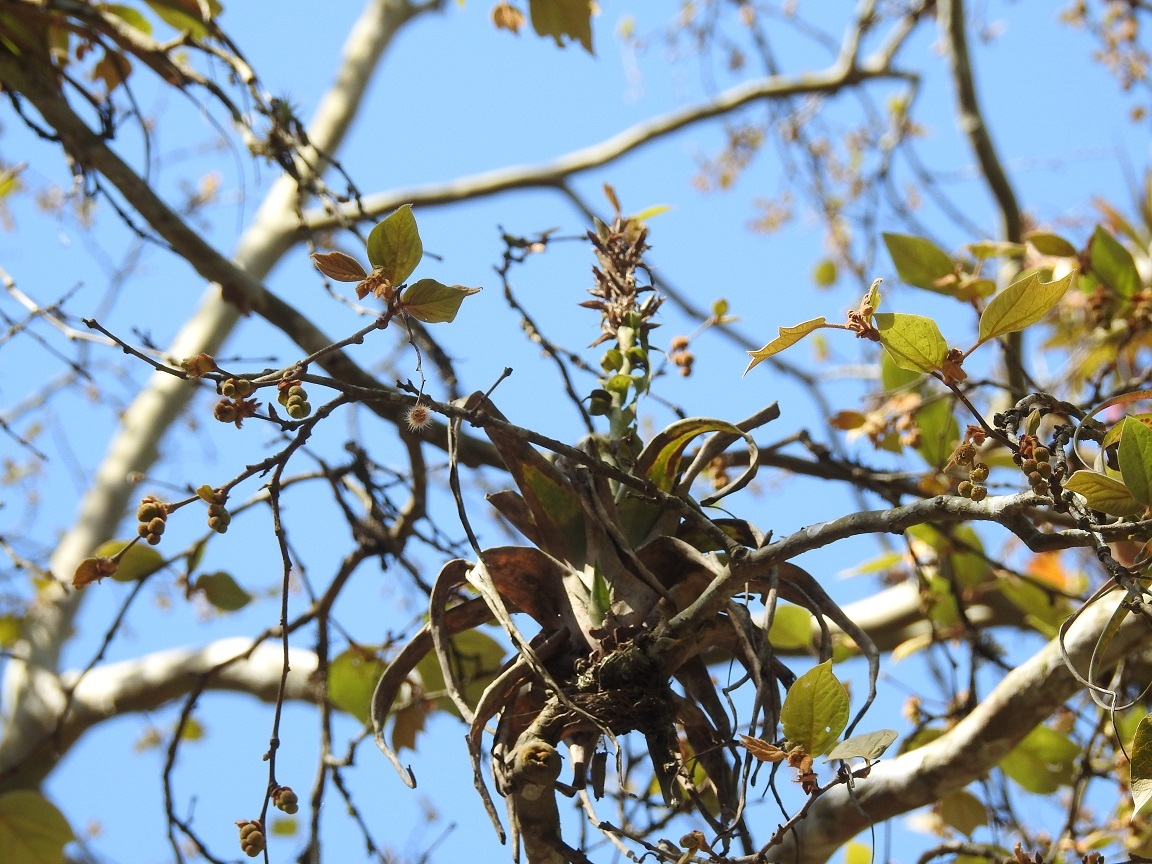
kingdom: Plantae
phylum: Tracheophyta
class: Liliopsida
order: Poales
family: Bromeliaceae
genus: Tillandsia
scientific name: Tillandsia belloensis
